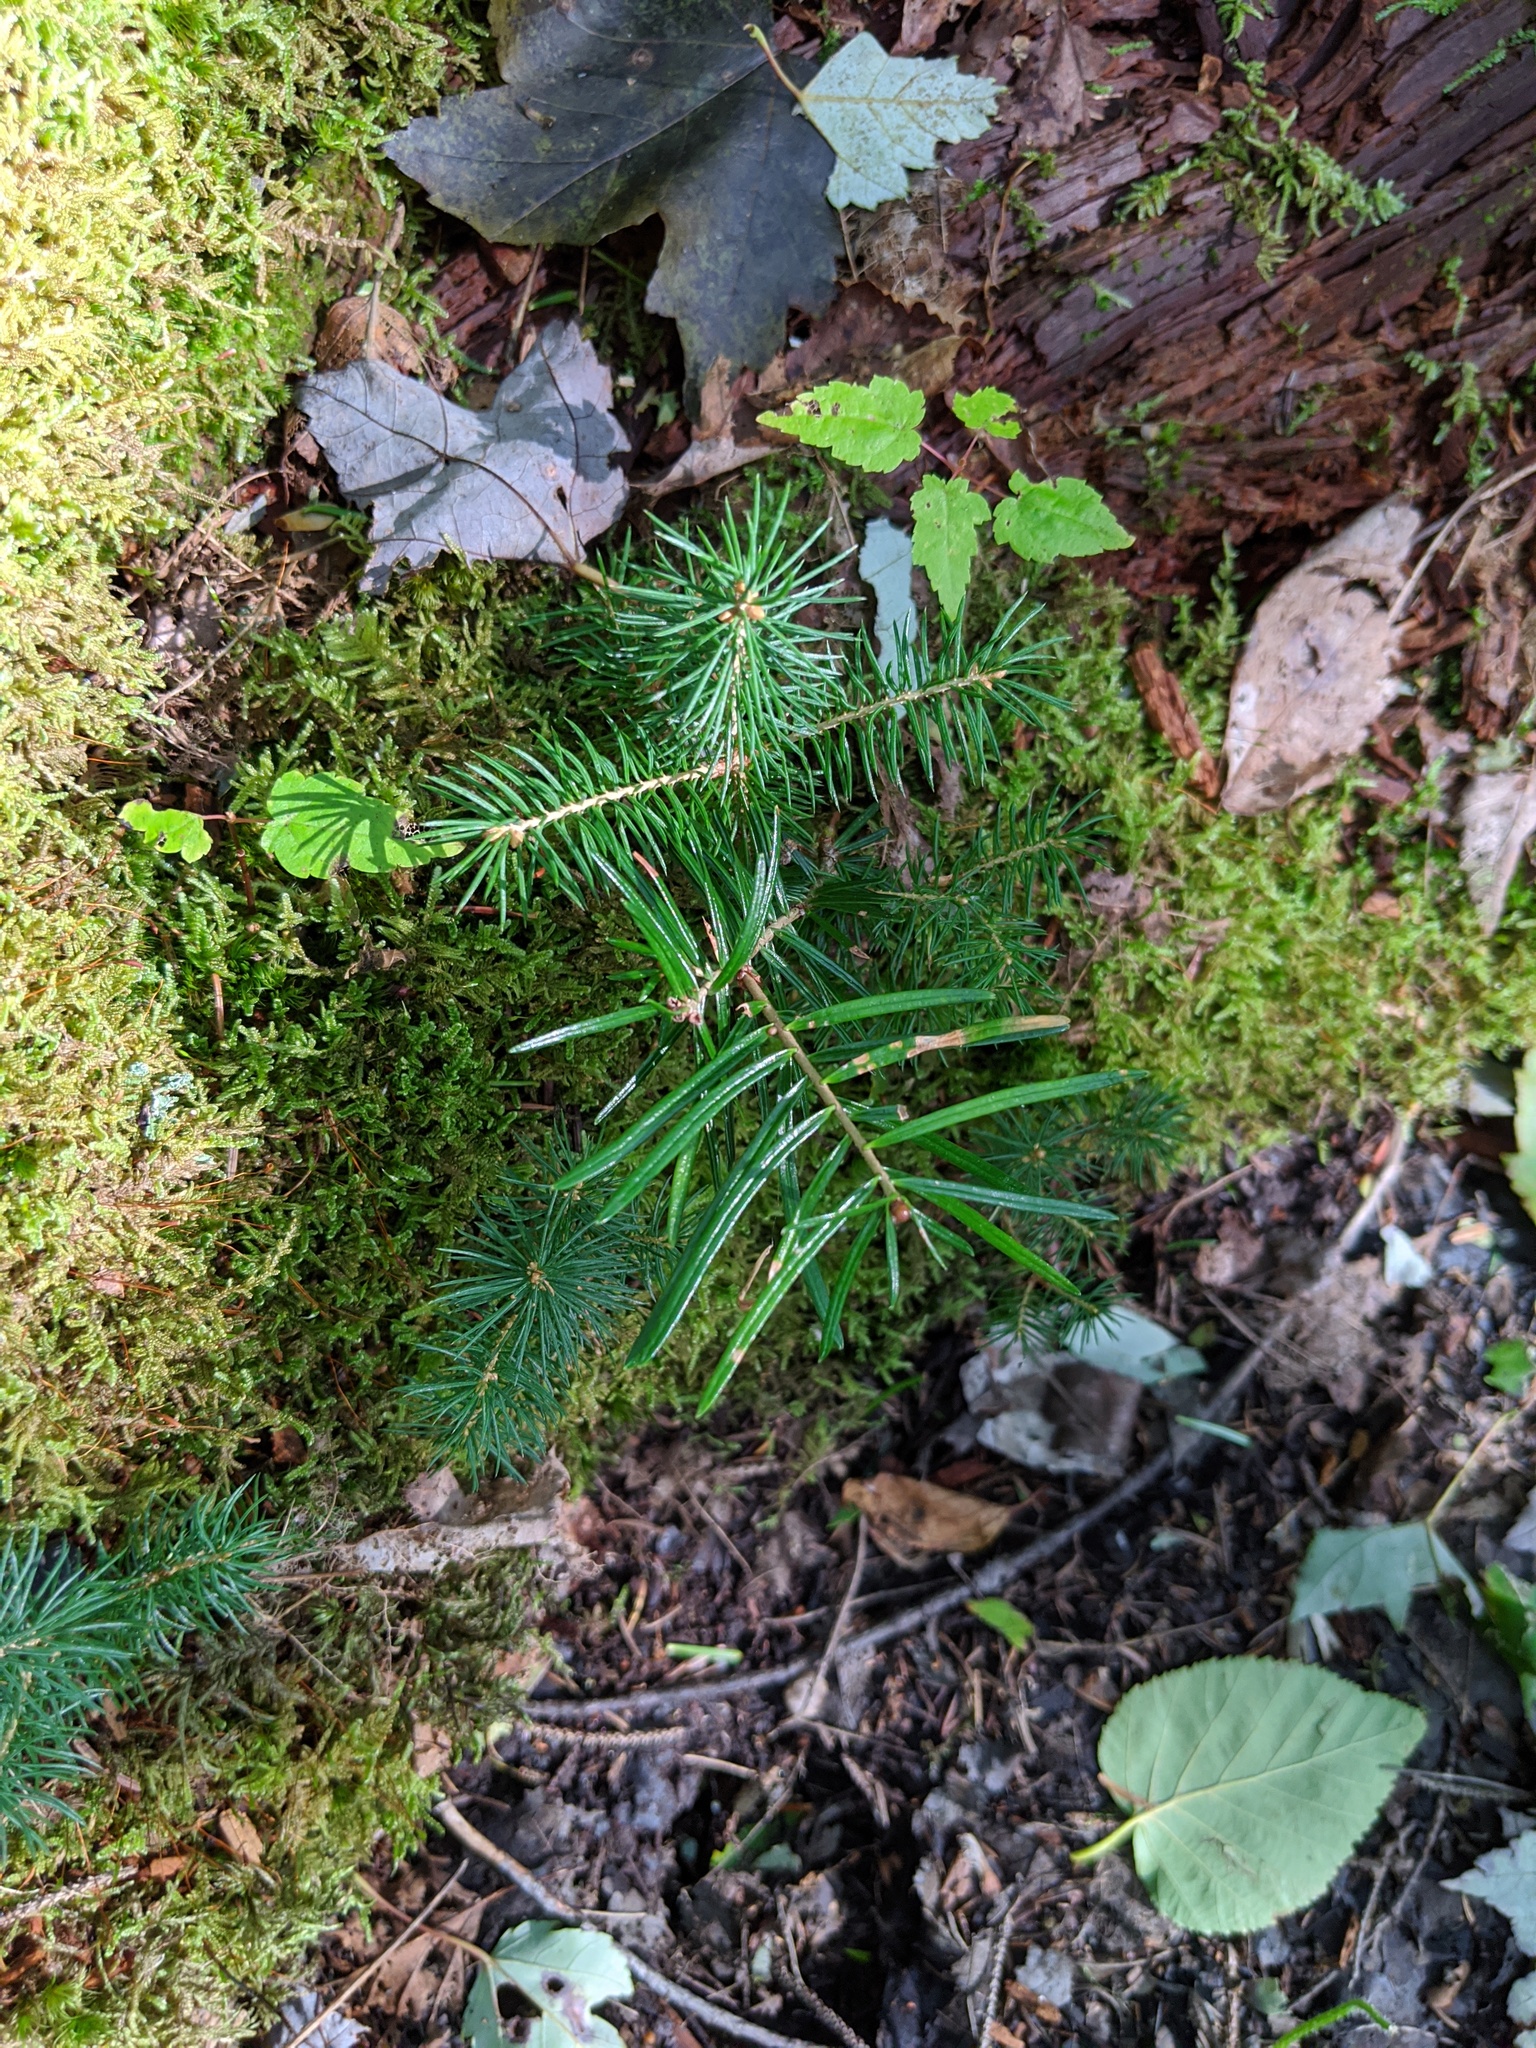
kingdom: Plantae
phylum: Tracheophyta
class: Pinopsida
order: Pinales
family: Pinaceae
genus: Abies
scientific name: Abies balsamea
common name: Balsam fir
